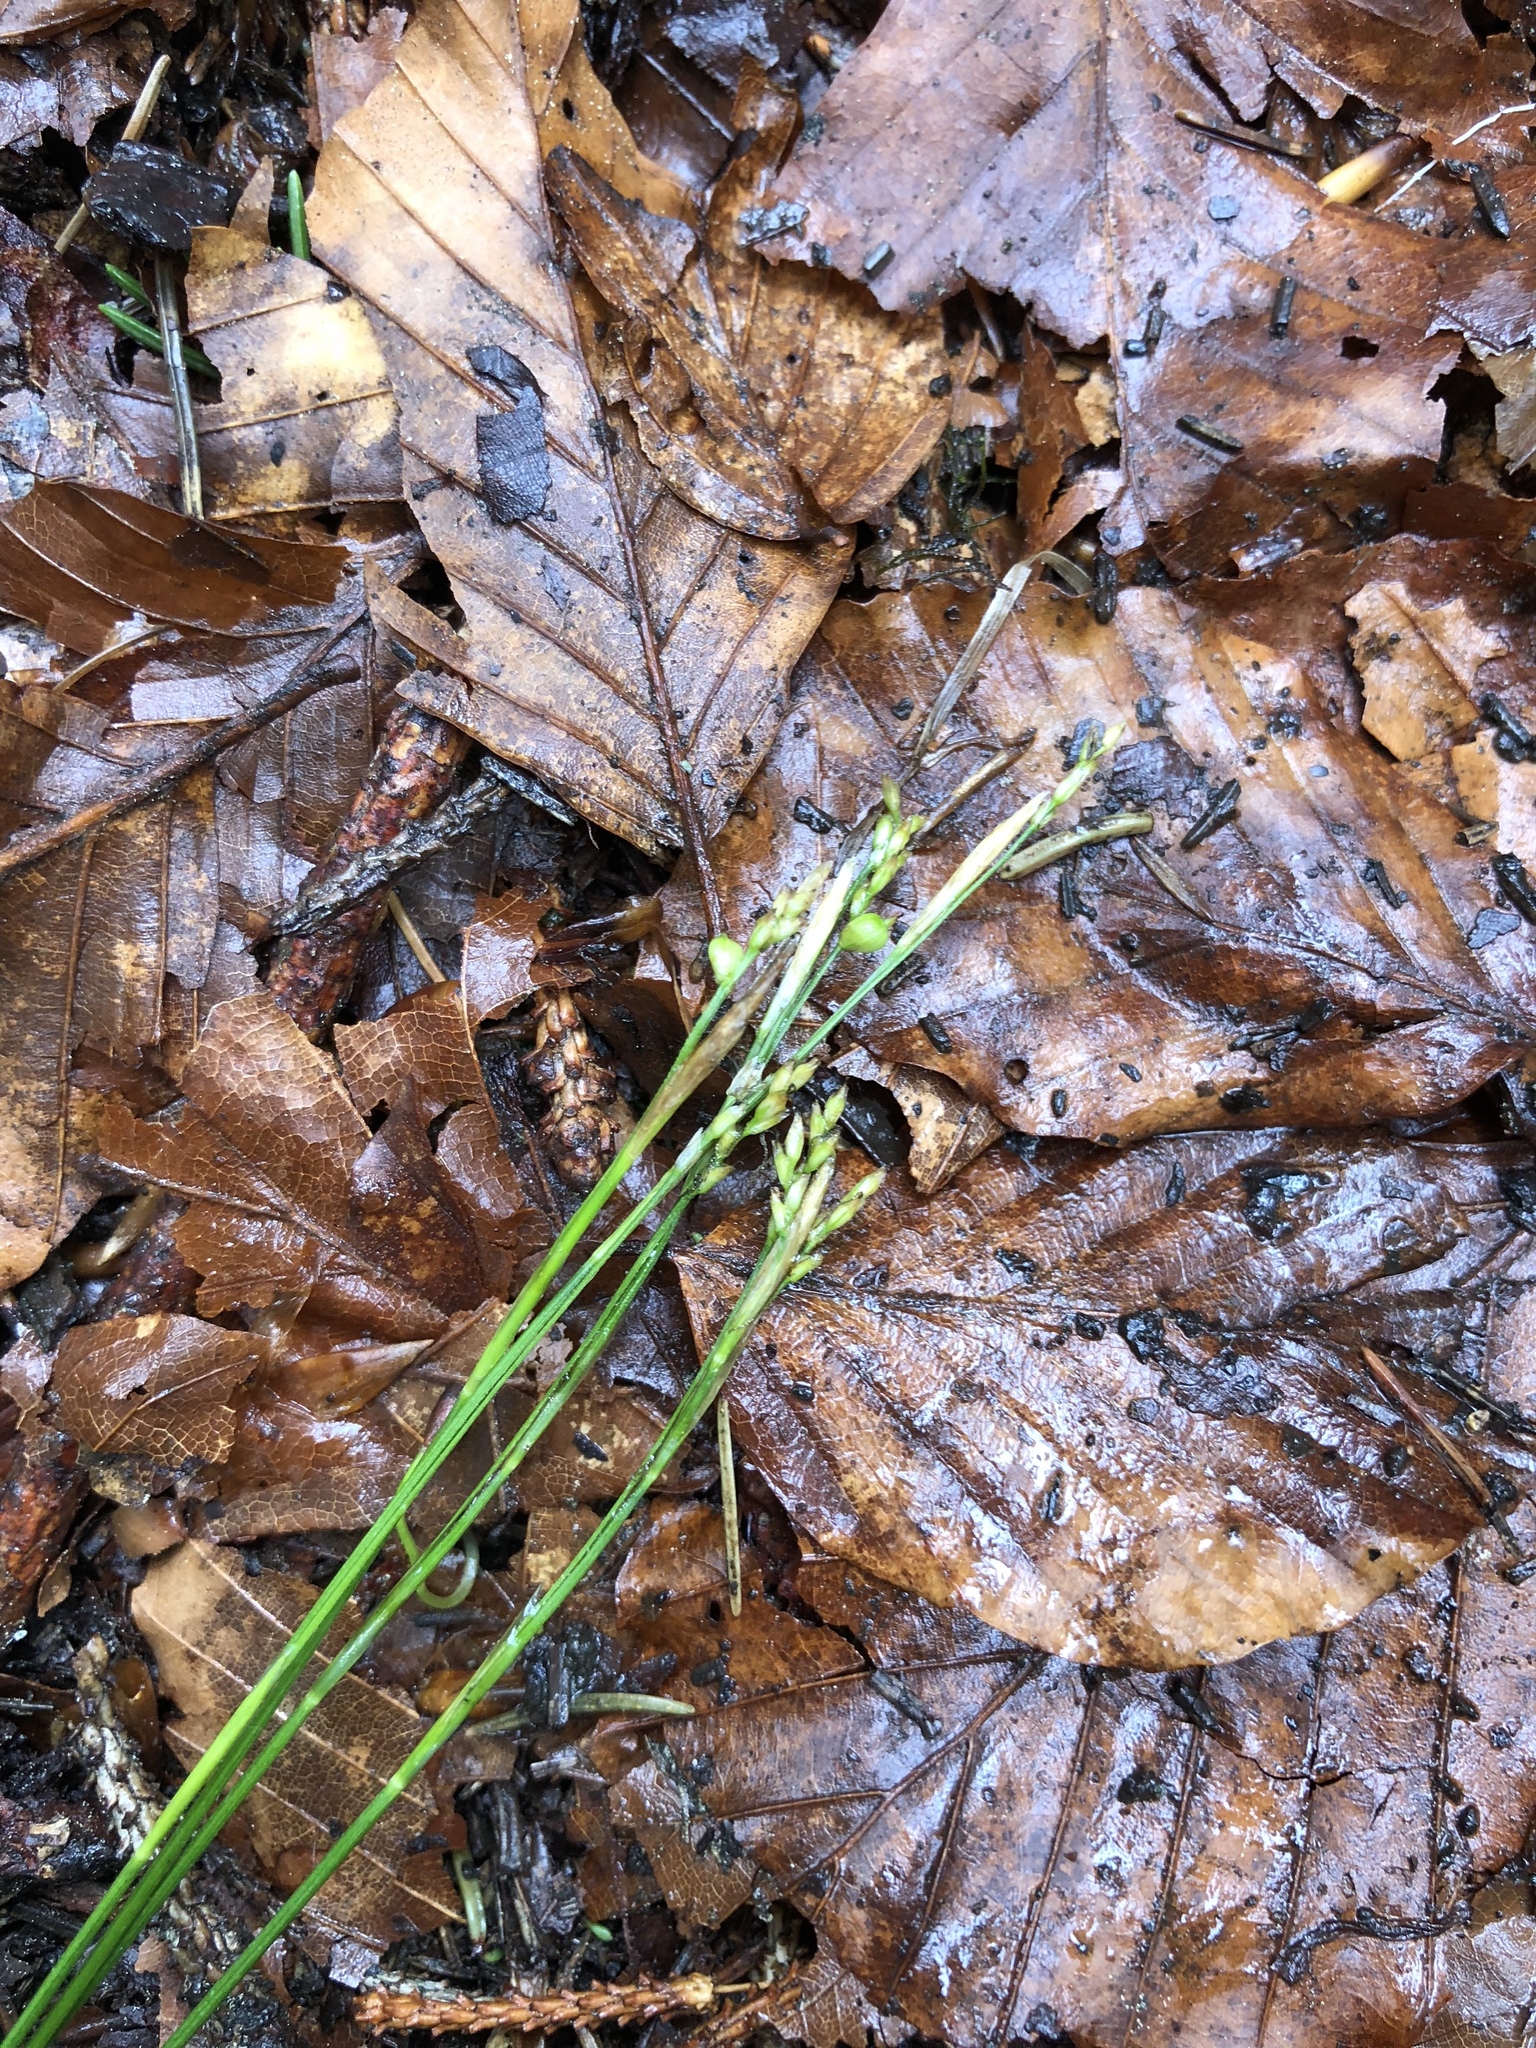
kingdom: Plantae
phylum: Tracheophyta
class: Liliopsida
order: Poales
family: Cyperaceae
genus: Carex
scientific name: Carex alba
